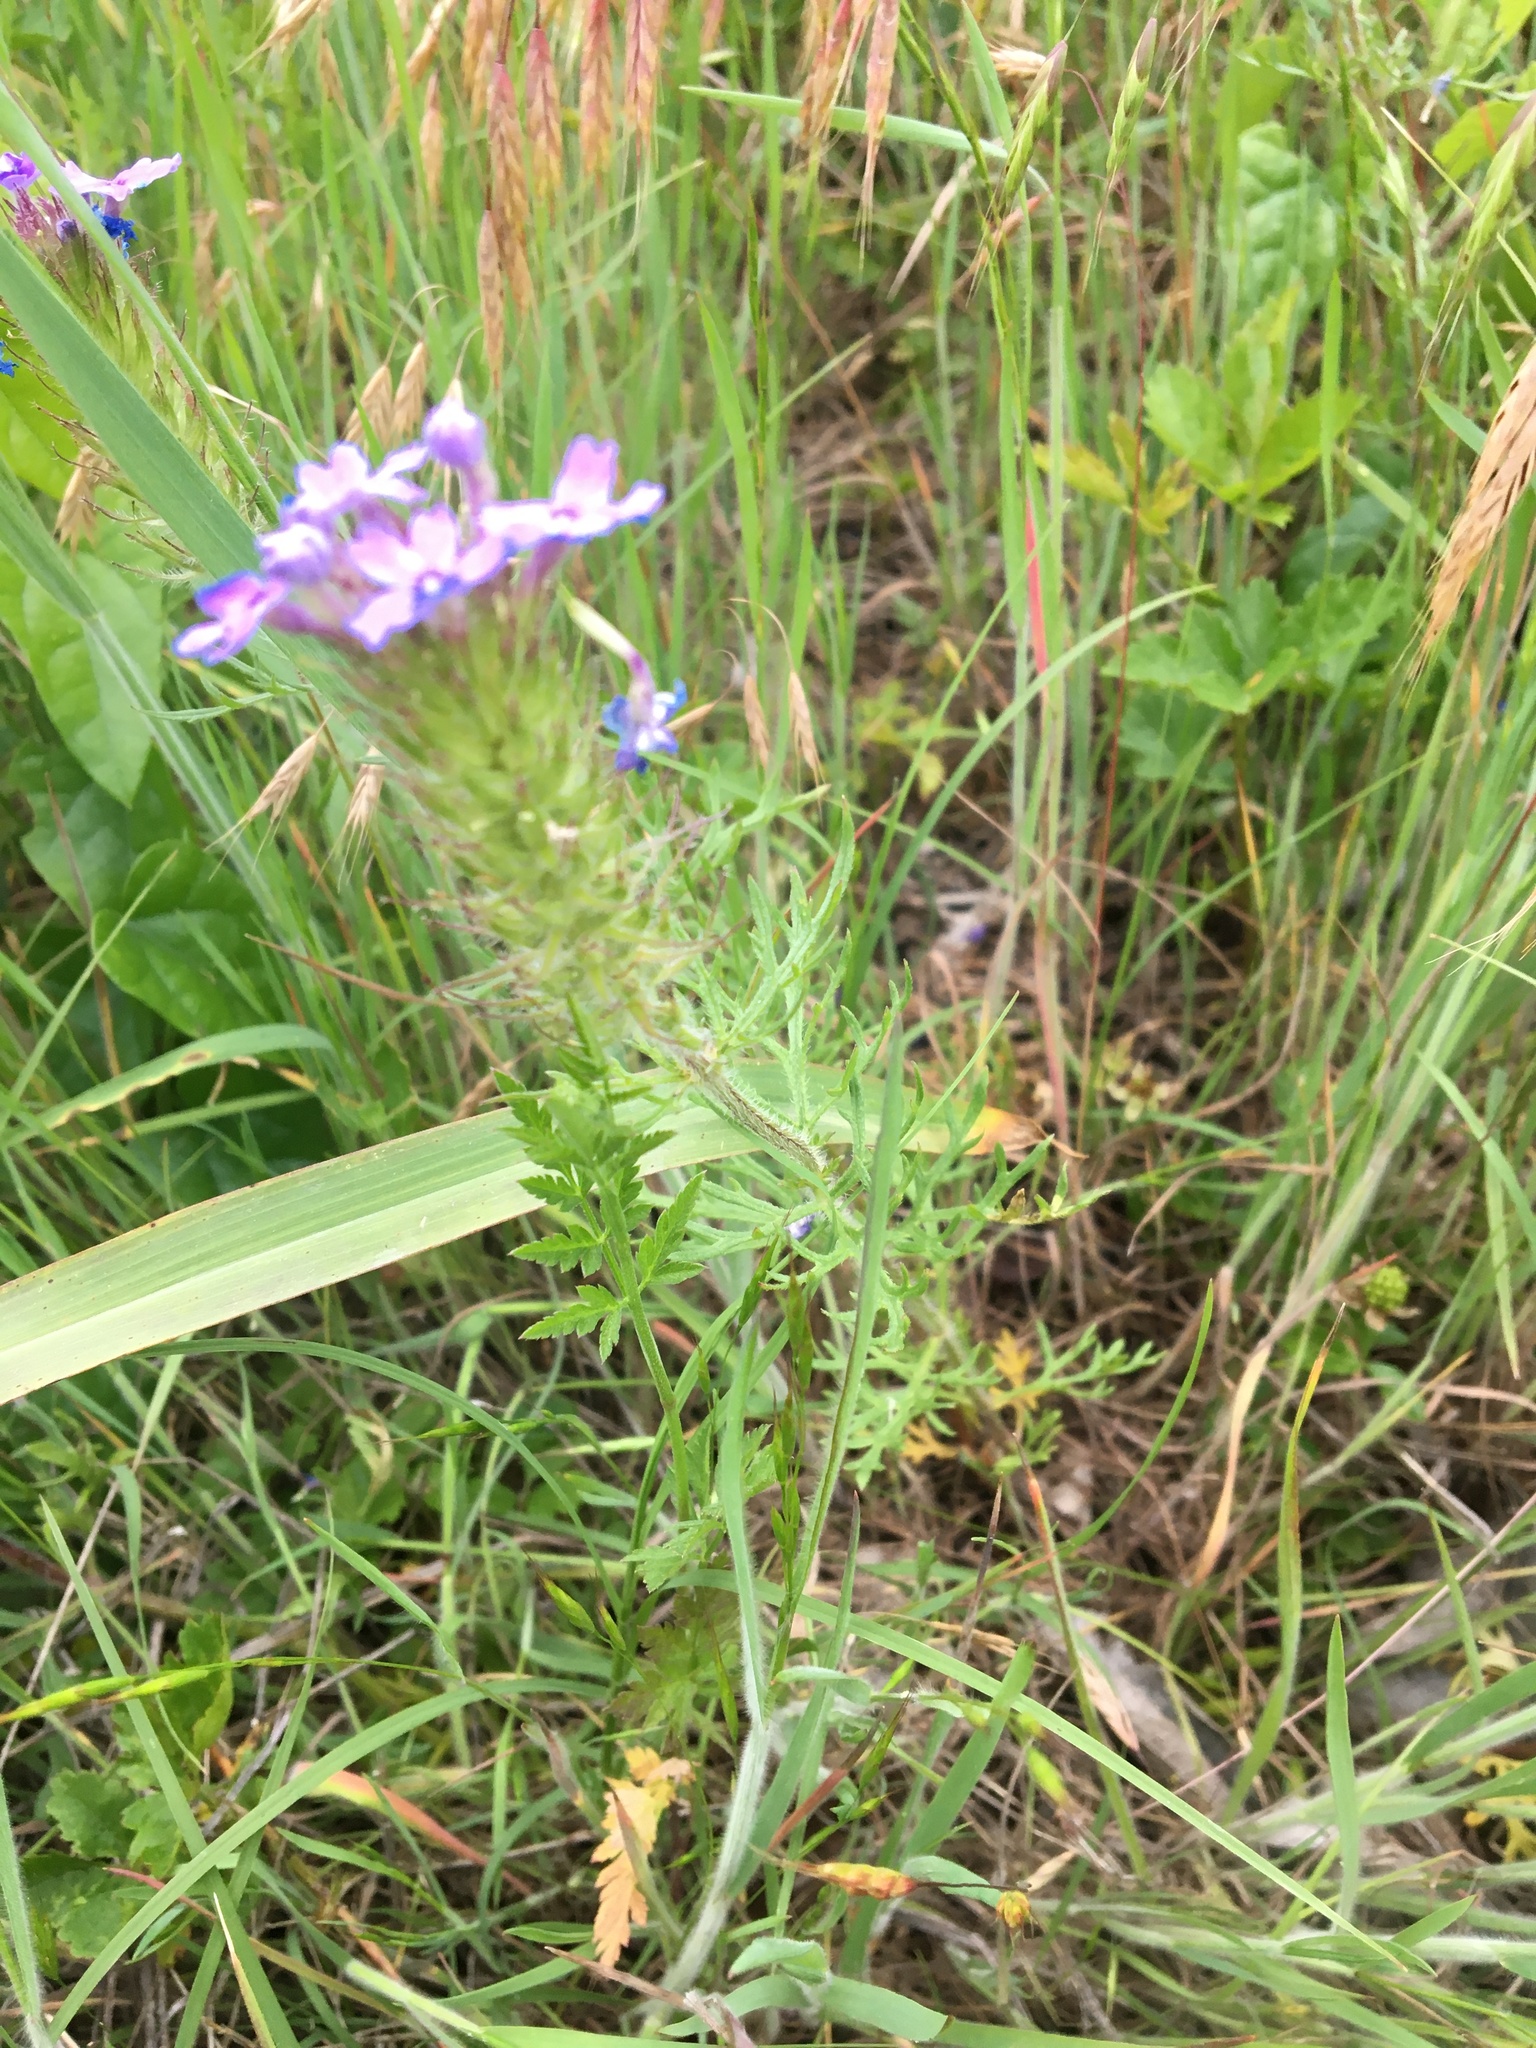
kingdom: Plantae
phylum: Tracheophyta
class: Magnoliopsida
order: Lamiales
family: Verbenaceae
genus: Verbena
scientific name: Verbena bipinnatifida
